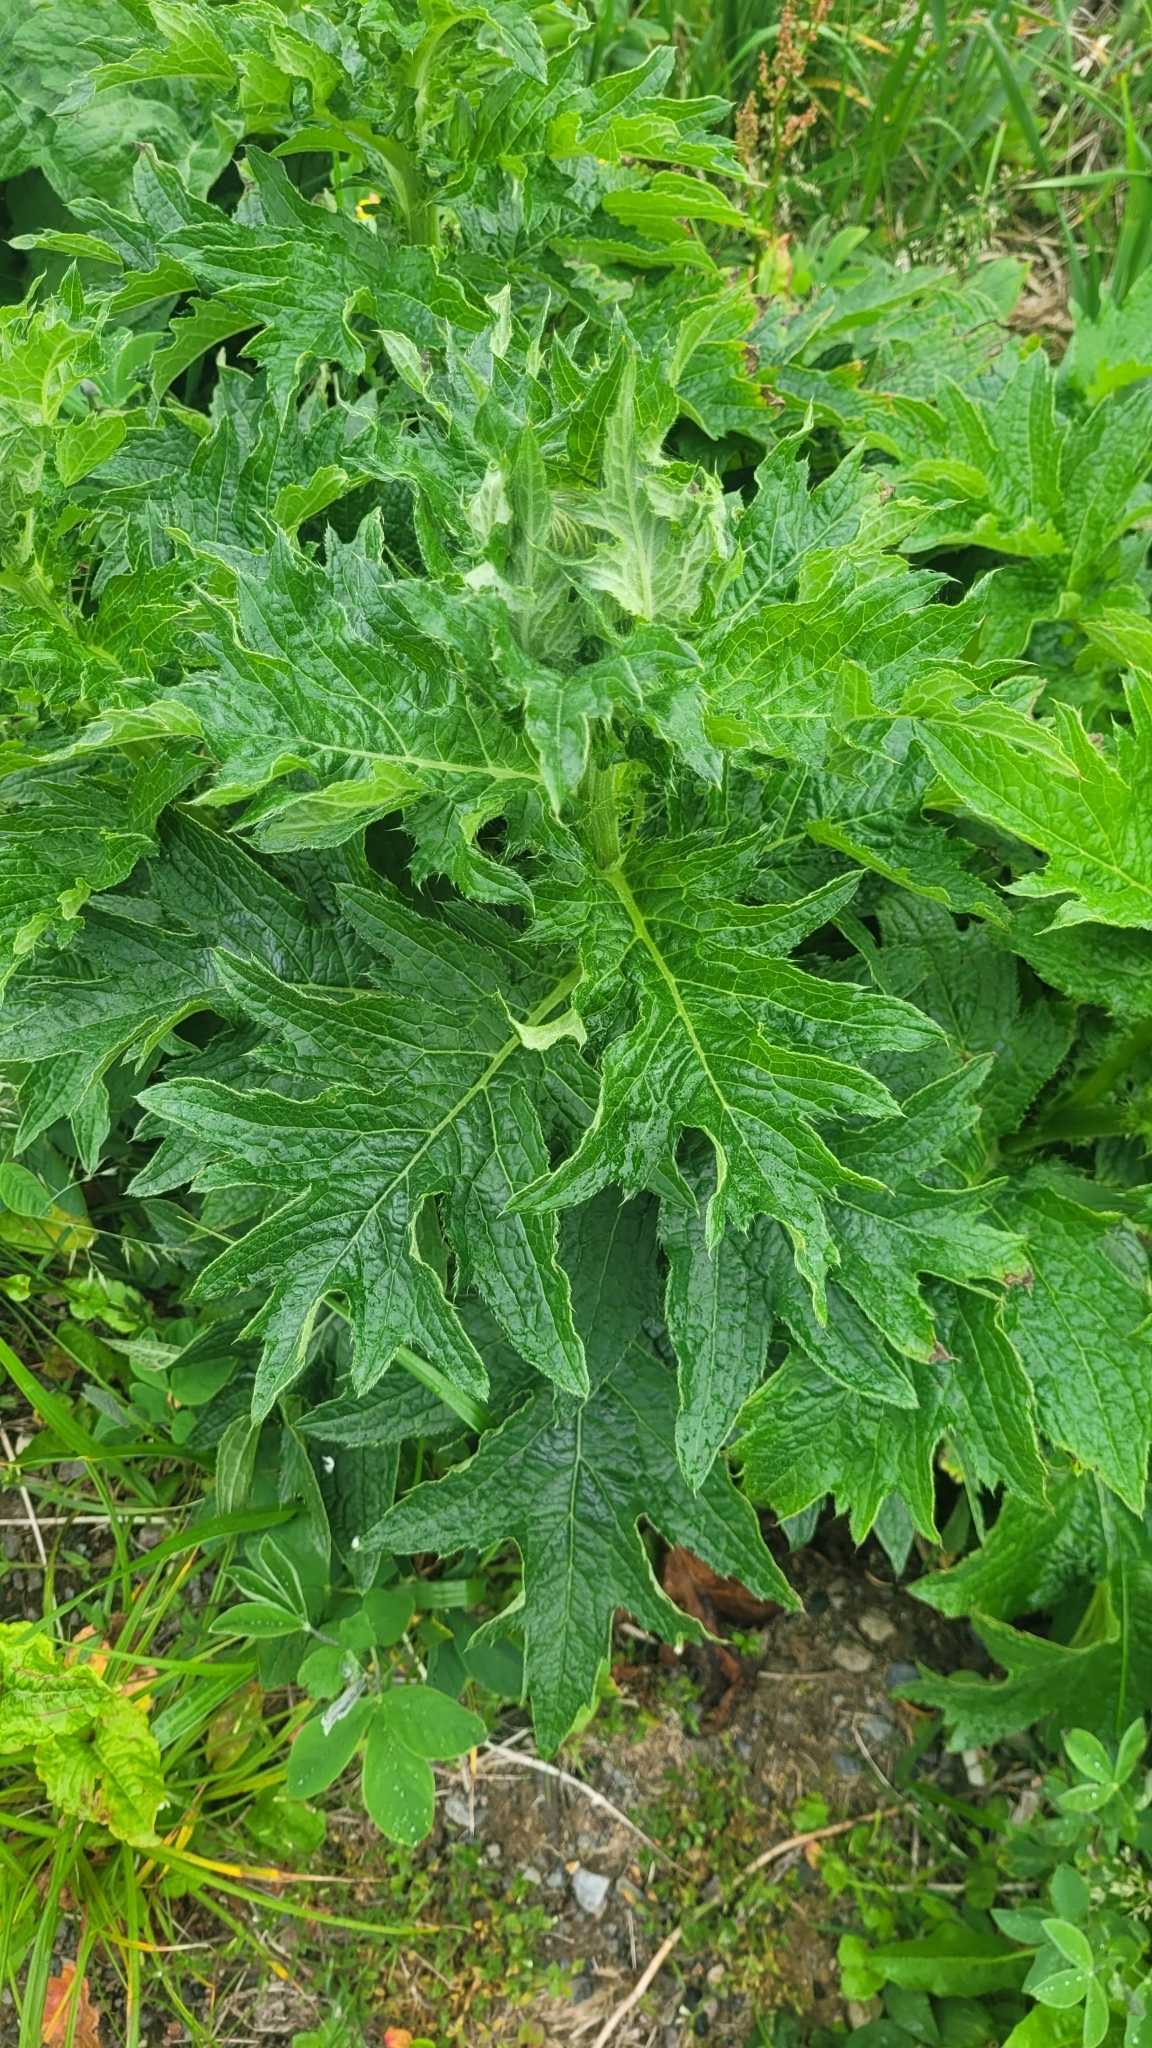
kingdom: Plantae
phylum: Tracheophyta
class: Magnoliopsida
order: Asterales
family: Asteraceae
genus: Cirsium
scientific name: Cirsium kamtschaticum
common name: Kamchatka thistle
